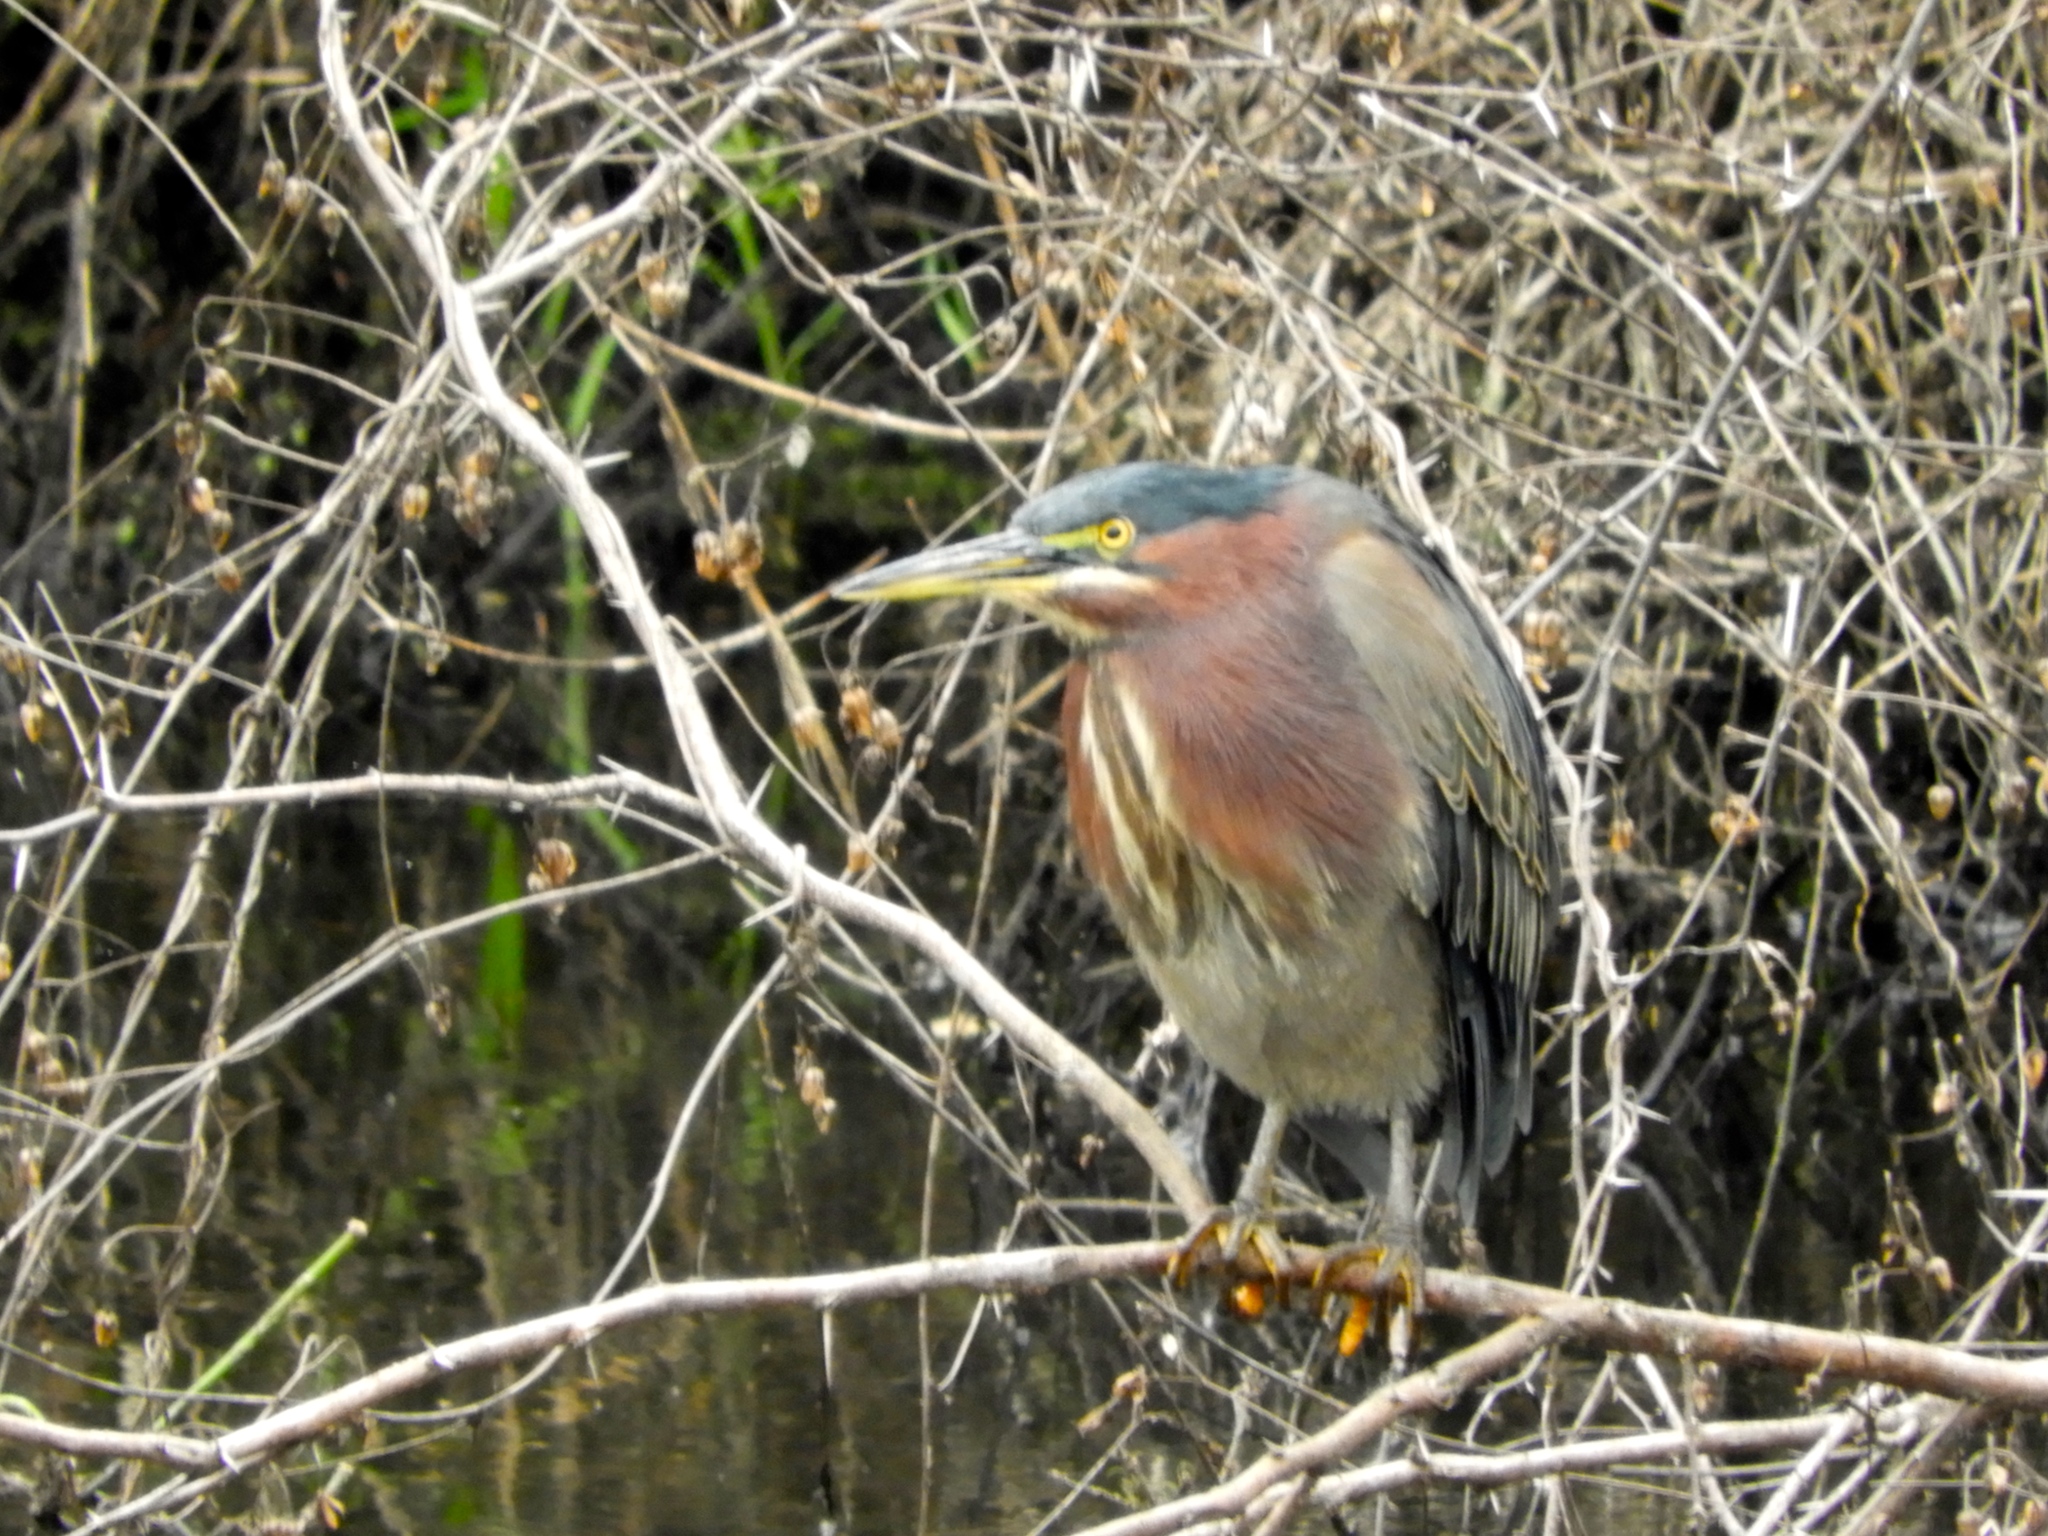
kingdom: Animalia
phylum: Chordata
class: Aves
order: Pelecaniformes
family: Ardeidae
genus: Butorides
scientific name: Butorides virescens
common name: Green heron
